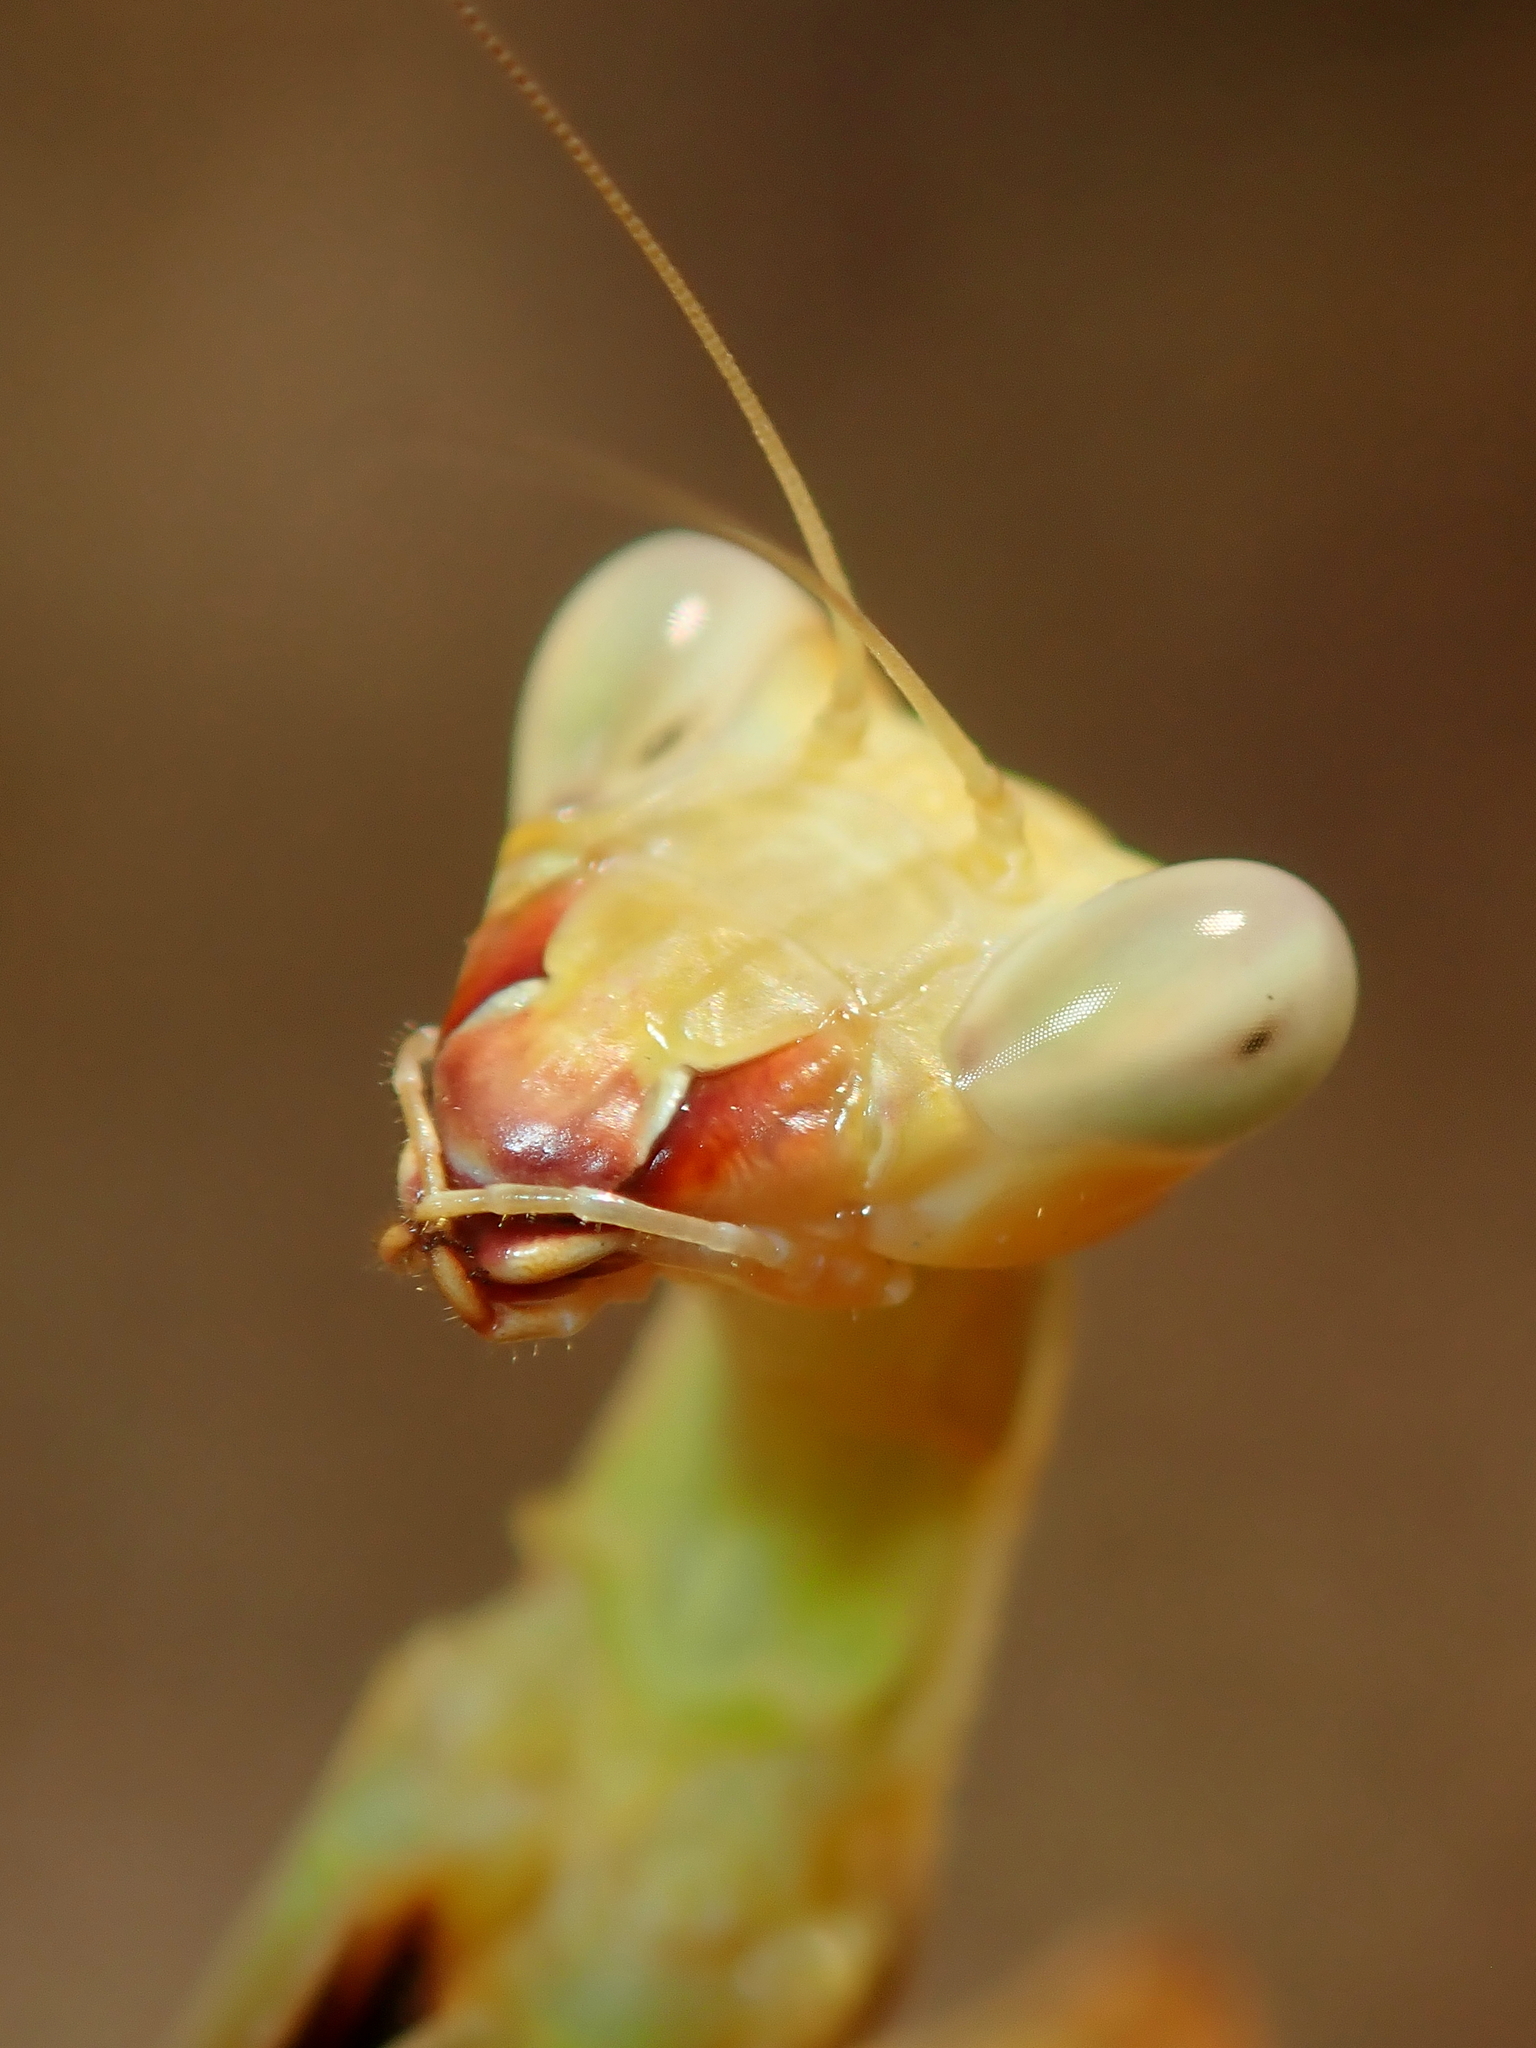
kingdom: Animalia
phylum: Arthropoda
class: Insecta
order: Mantodea
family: Photinaidae
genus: Cardioptera
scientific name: Cardioptera viridipennis
